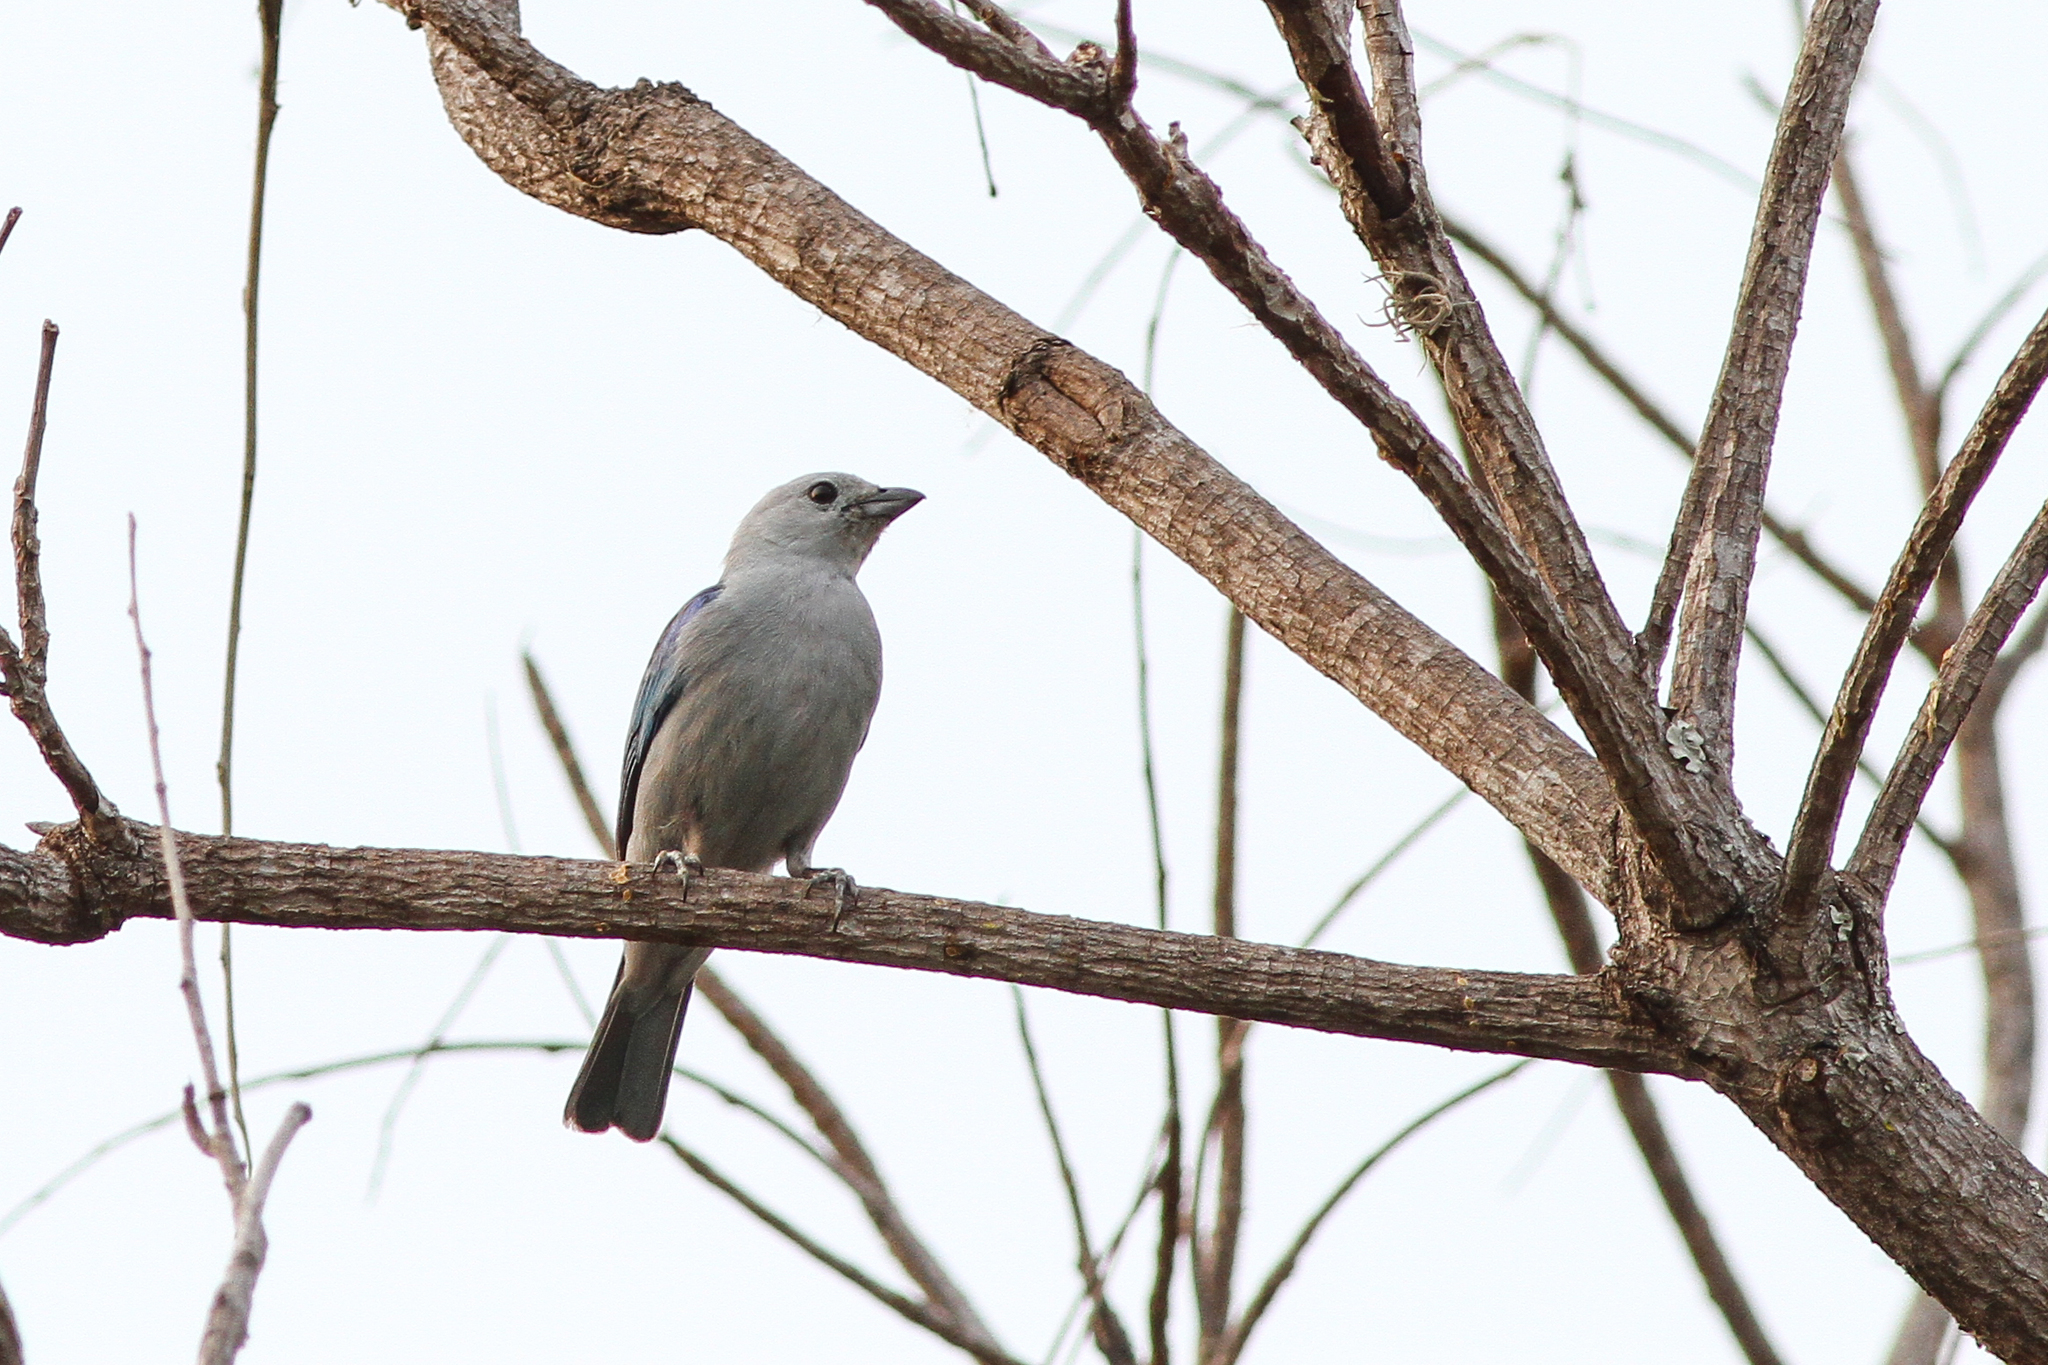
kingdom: Animalia
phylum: Chordata
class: Aves
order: Passeriformes
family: Thraupidae
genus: Thraupis
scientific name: Thraupis episcopus
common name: Blue-grey tanager
